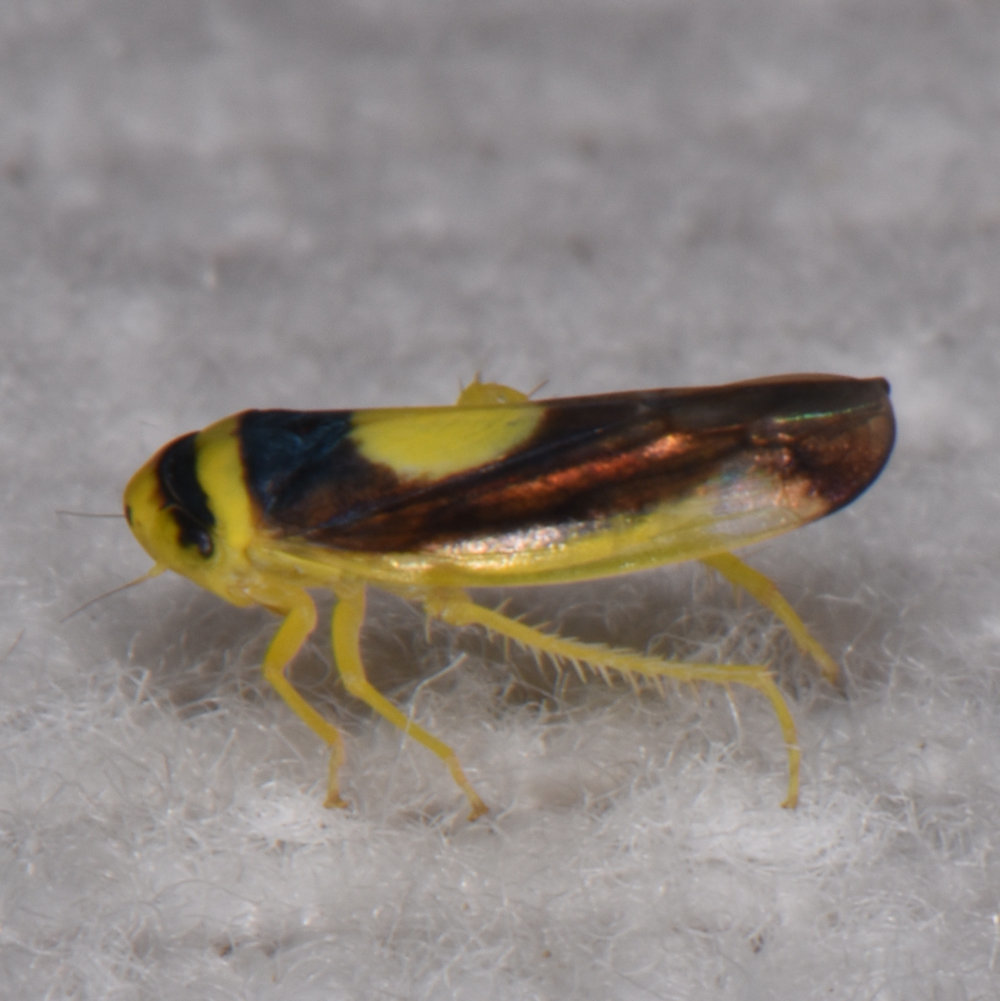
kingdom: Animalia
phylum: Arthropoda
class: Insecta
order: Hemiptera
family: Cicadellidae
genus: Colladonus
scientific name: Colladonus clitellarius
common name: The saddleback leafhopper
